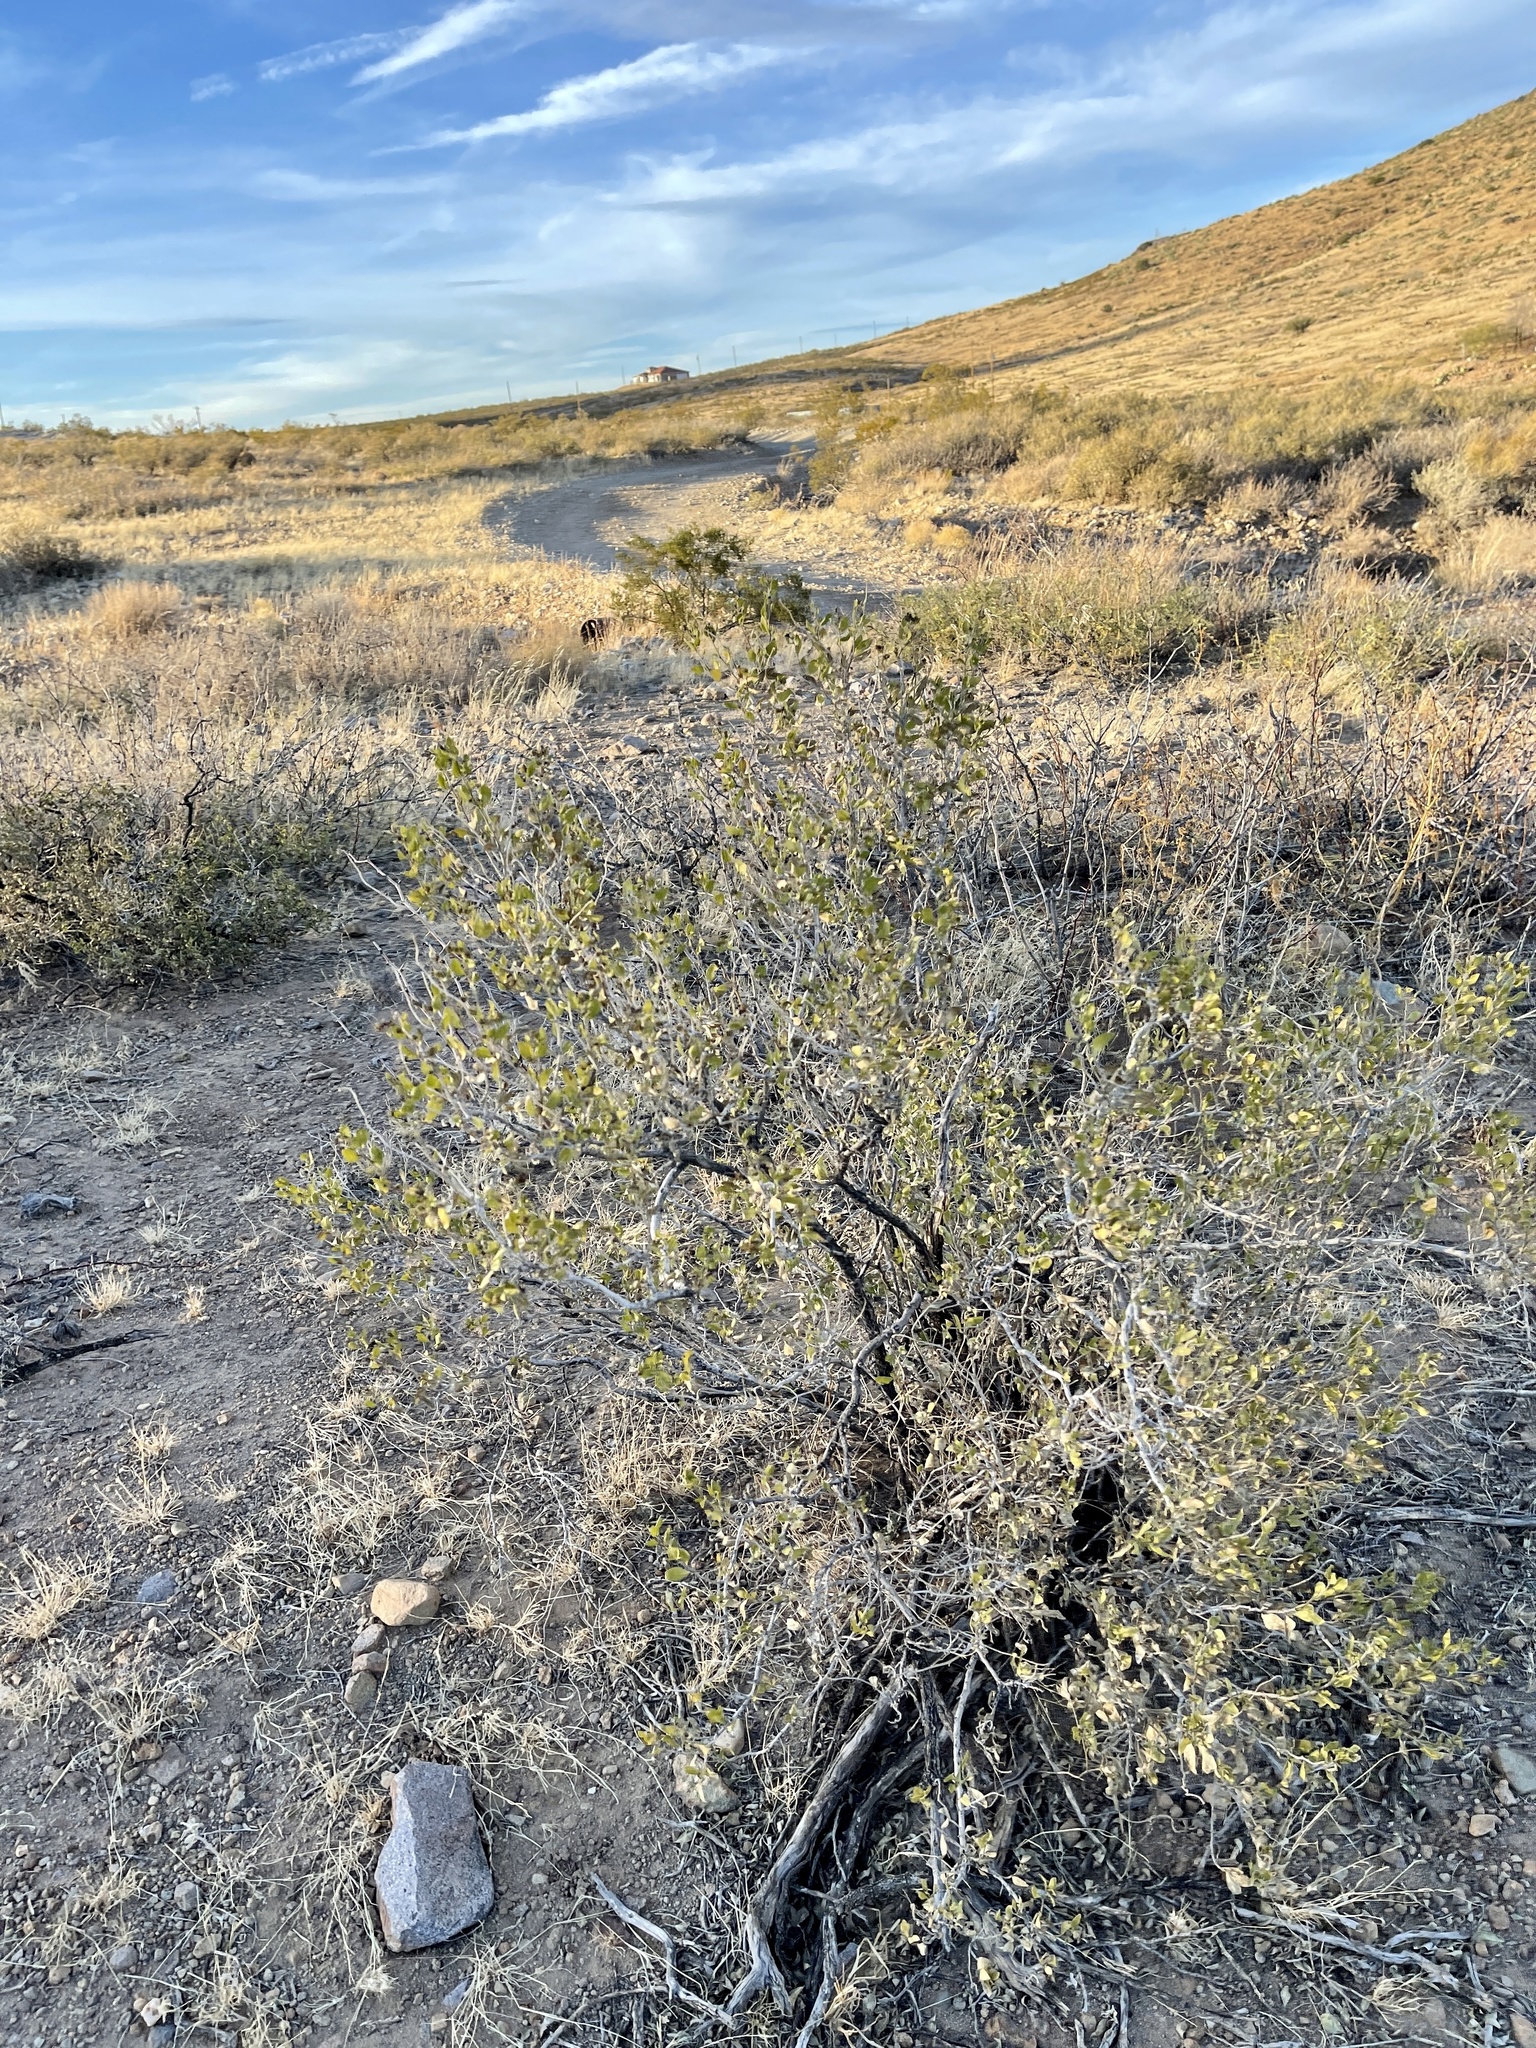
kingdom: Plantae
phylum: Tracheophyta
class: Magnoliopsida
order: Asterales
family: Asteraceae
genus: Flourensia
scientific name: Flourensia cernua
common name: Varnishbush
